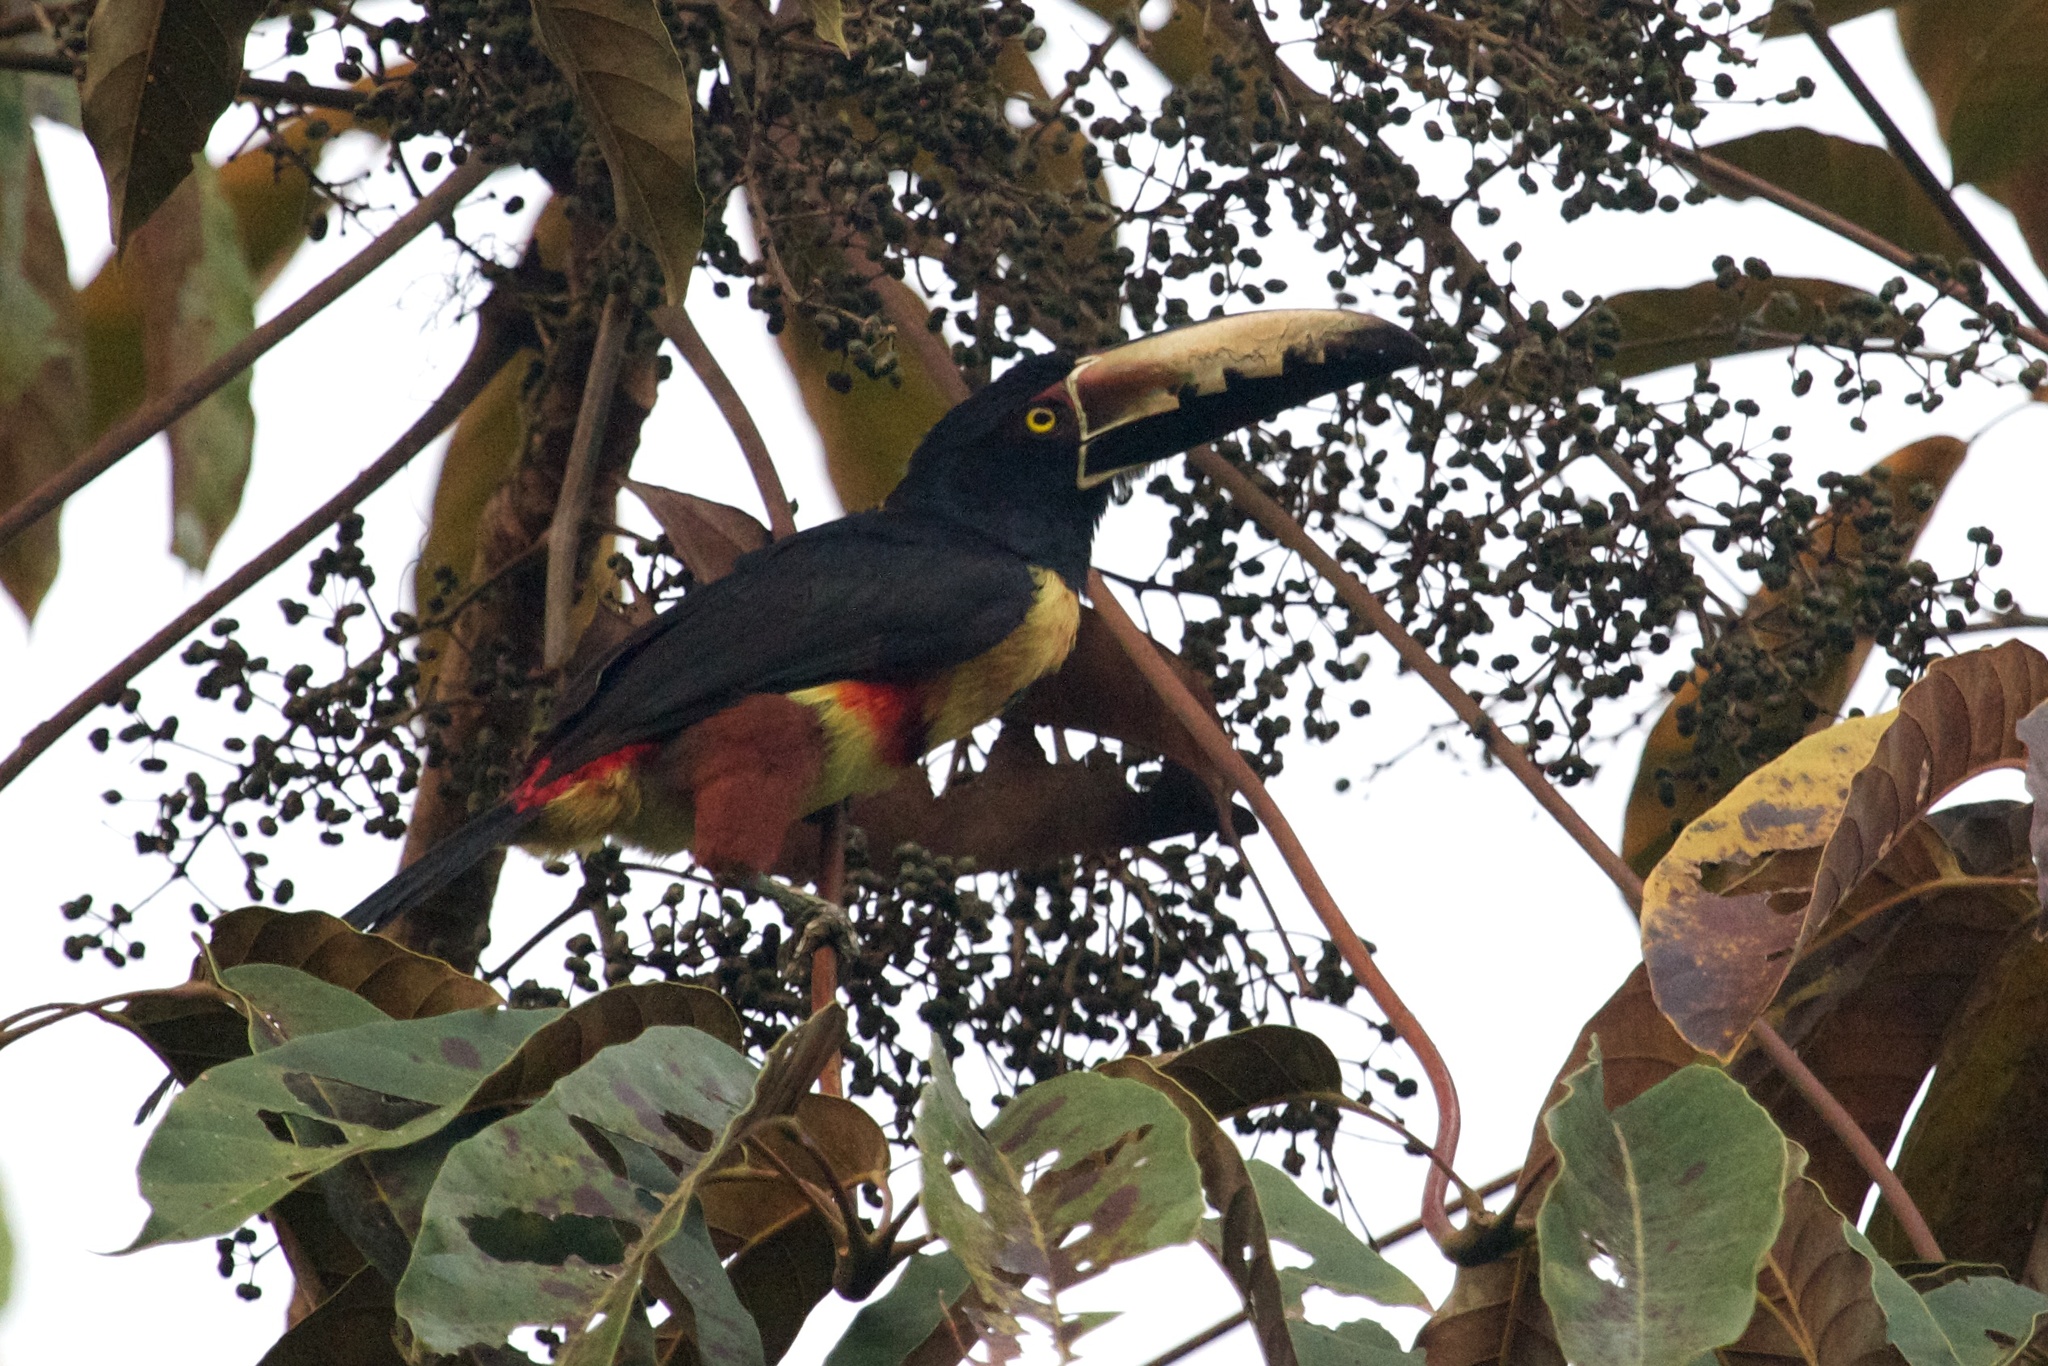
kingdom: Animalia
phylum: Chordata
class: Aves
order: Piciformes
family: Ramphastidae
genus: Pteroglossus
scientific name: Pteroglossus torquatus
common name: Collared aracari
